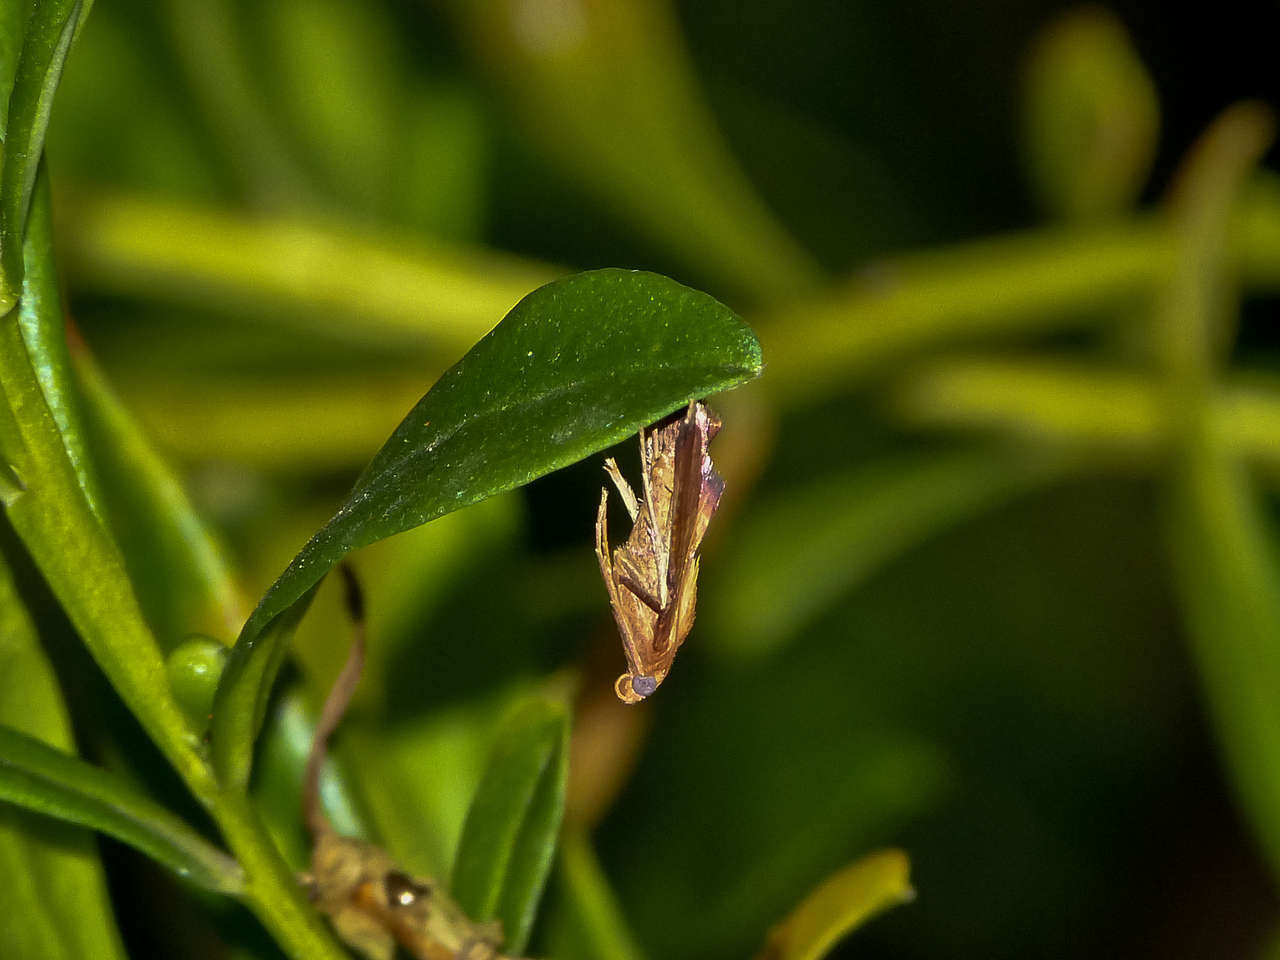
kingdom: Animalia
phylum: Arthropoda
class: Insecta
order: Lepidoptera
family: Pyralidae
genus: Endotricha
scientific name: Endotricha pyrosalis
